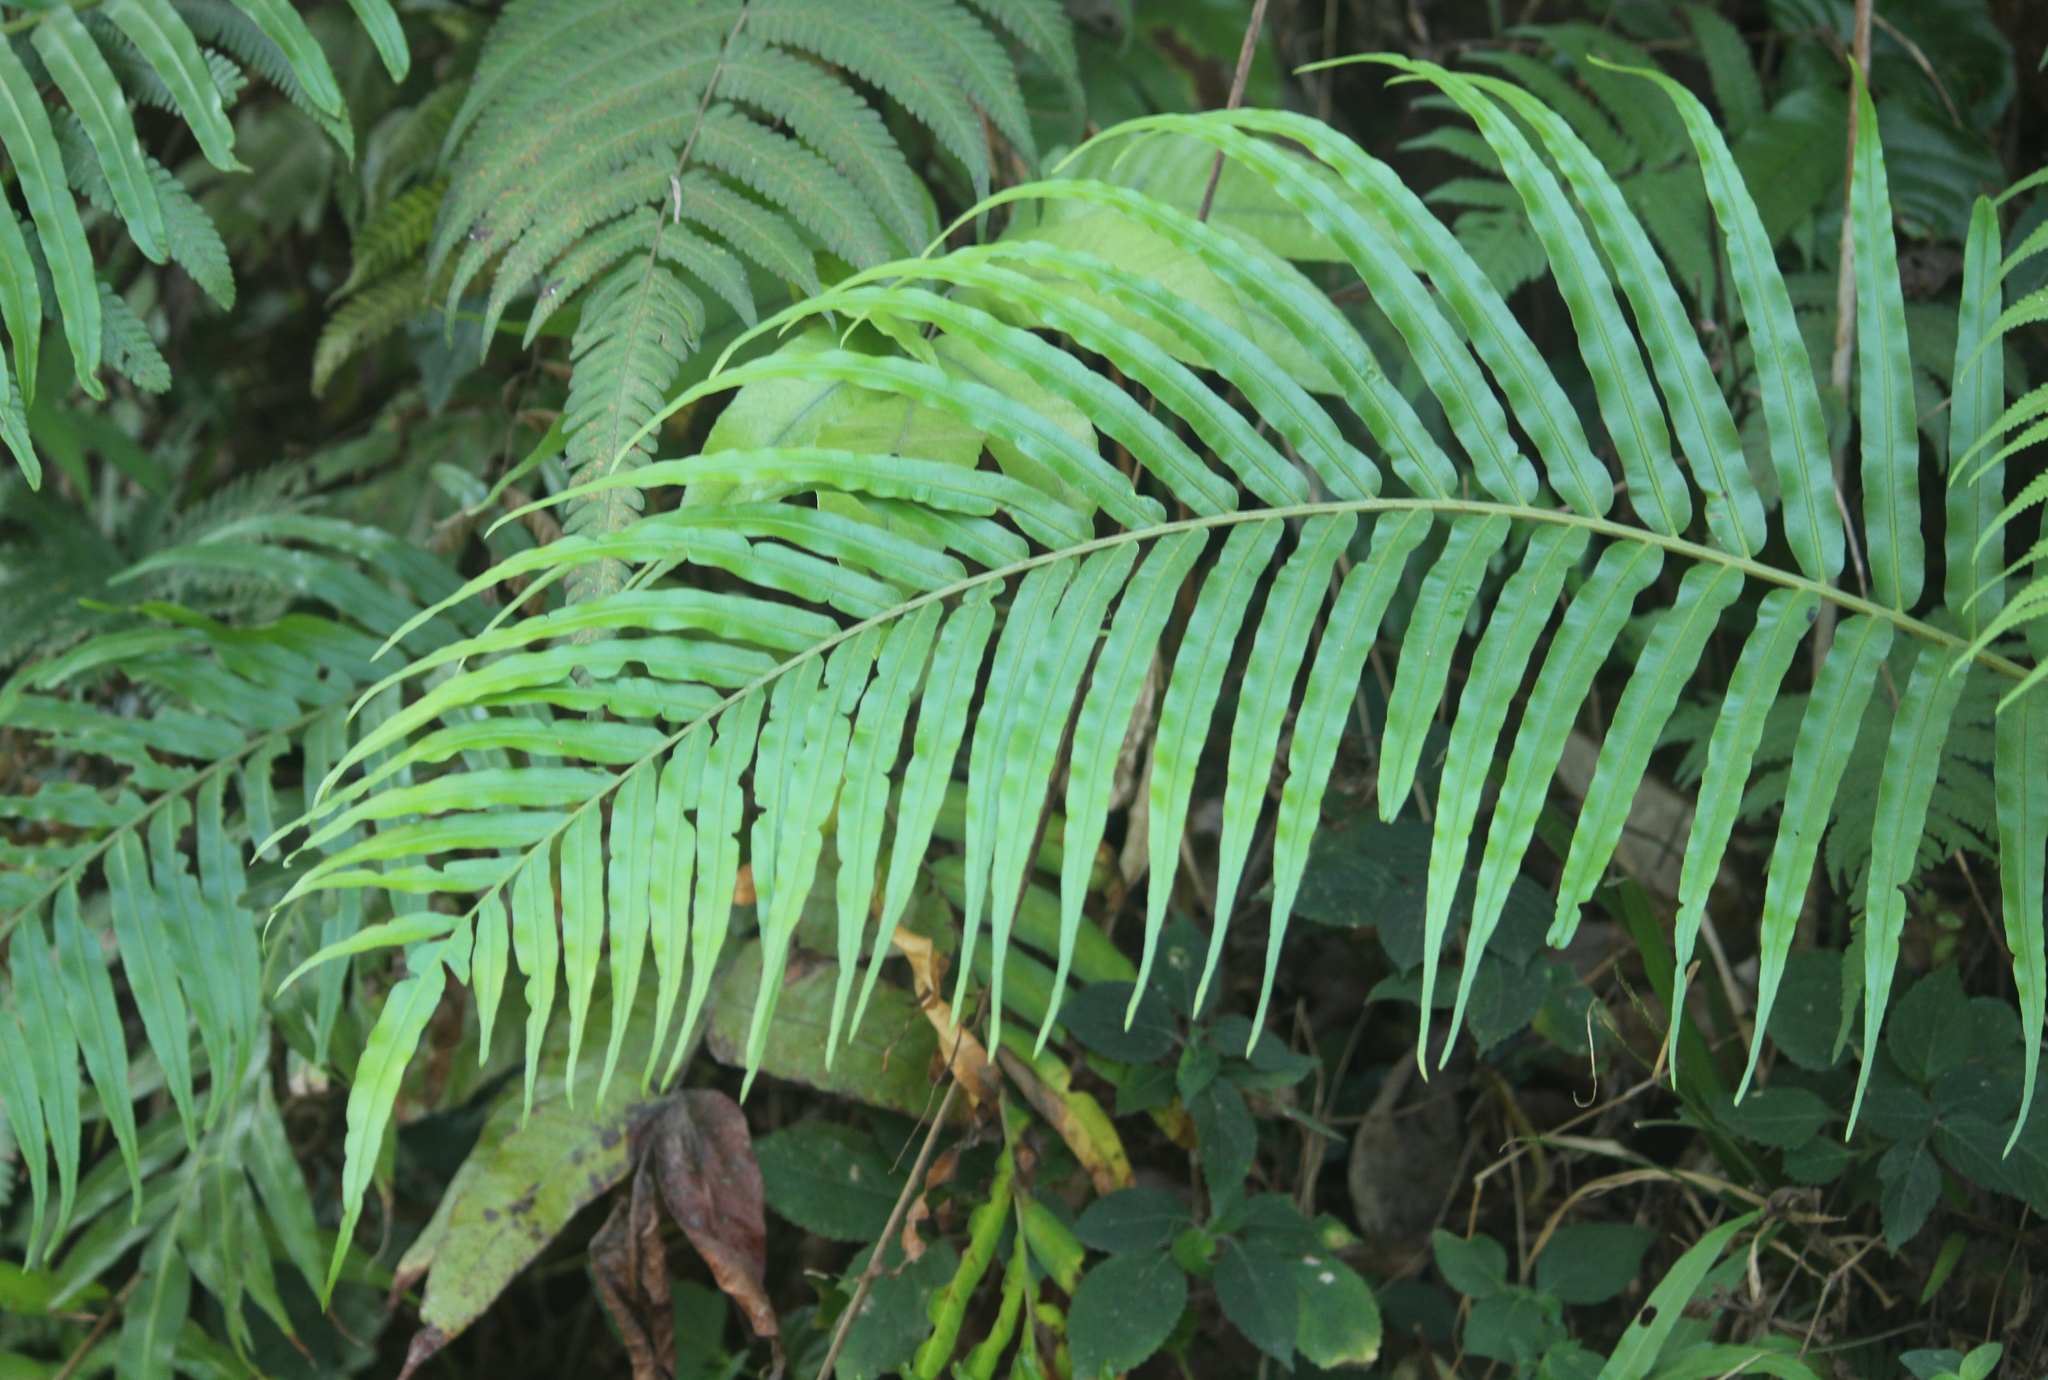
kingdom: Plantae
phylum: Tracheophyta
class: Polypodiopsida
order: Polypodiales
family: Blechnaceae
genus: Blechnopsis
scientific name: Blechnopsis orientalis
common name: Oriental blechnum
